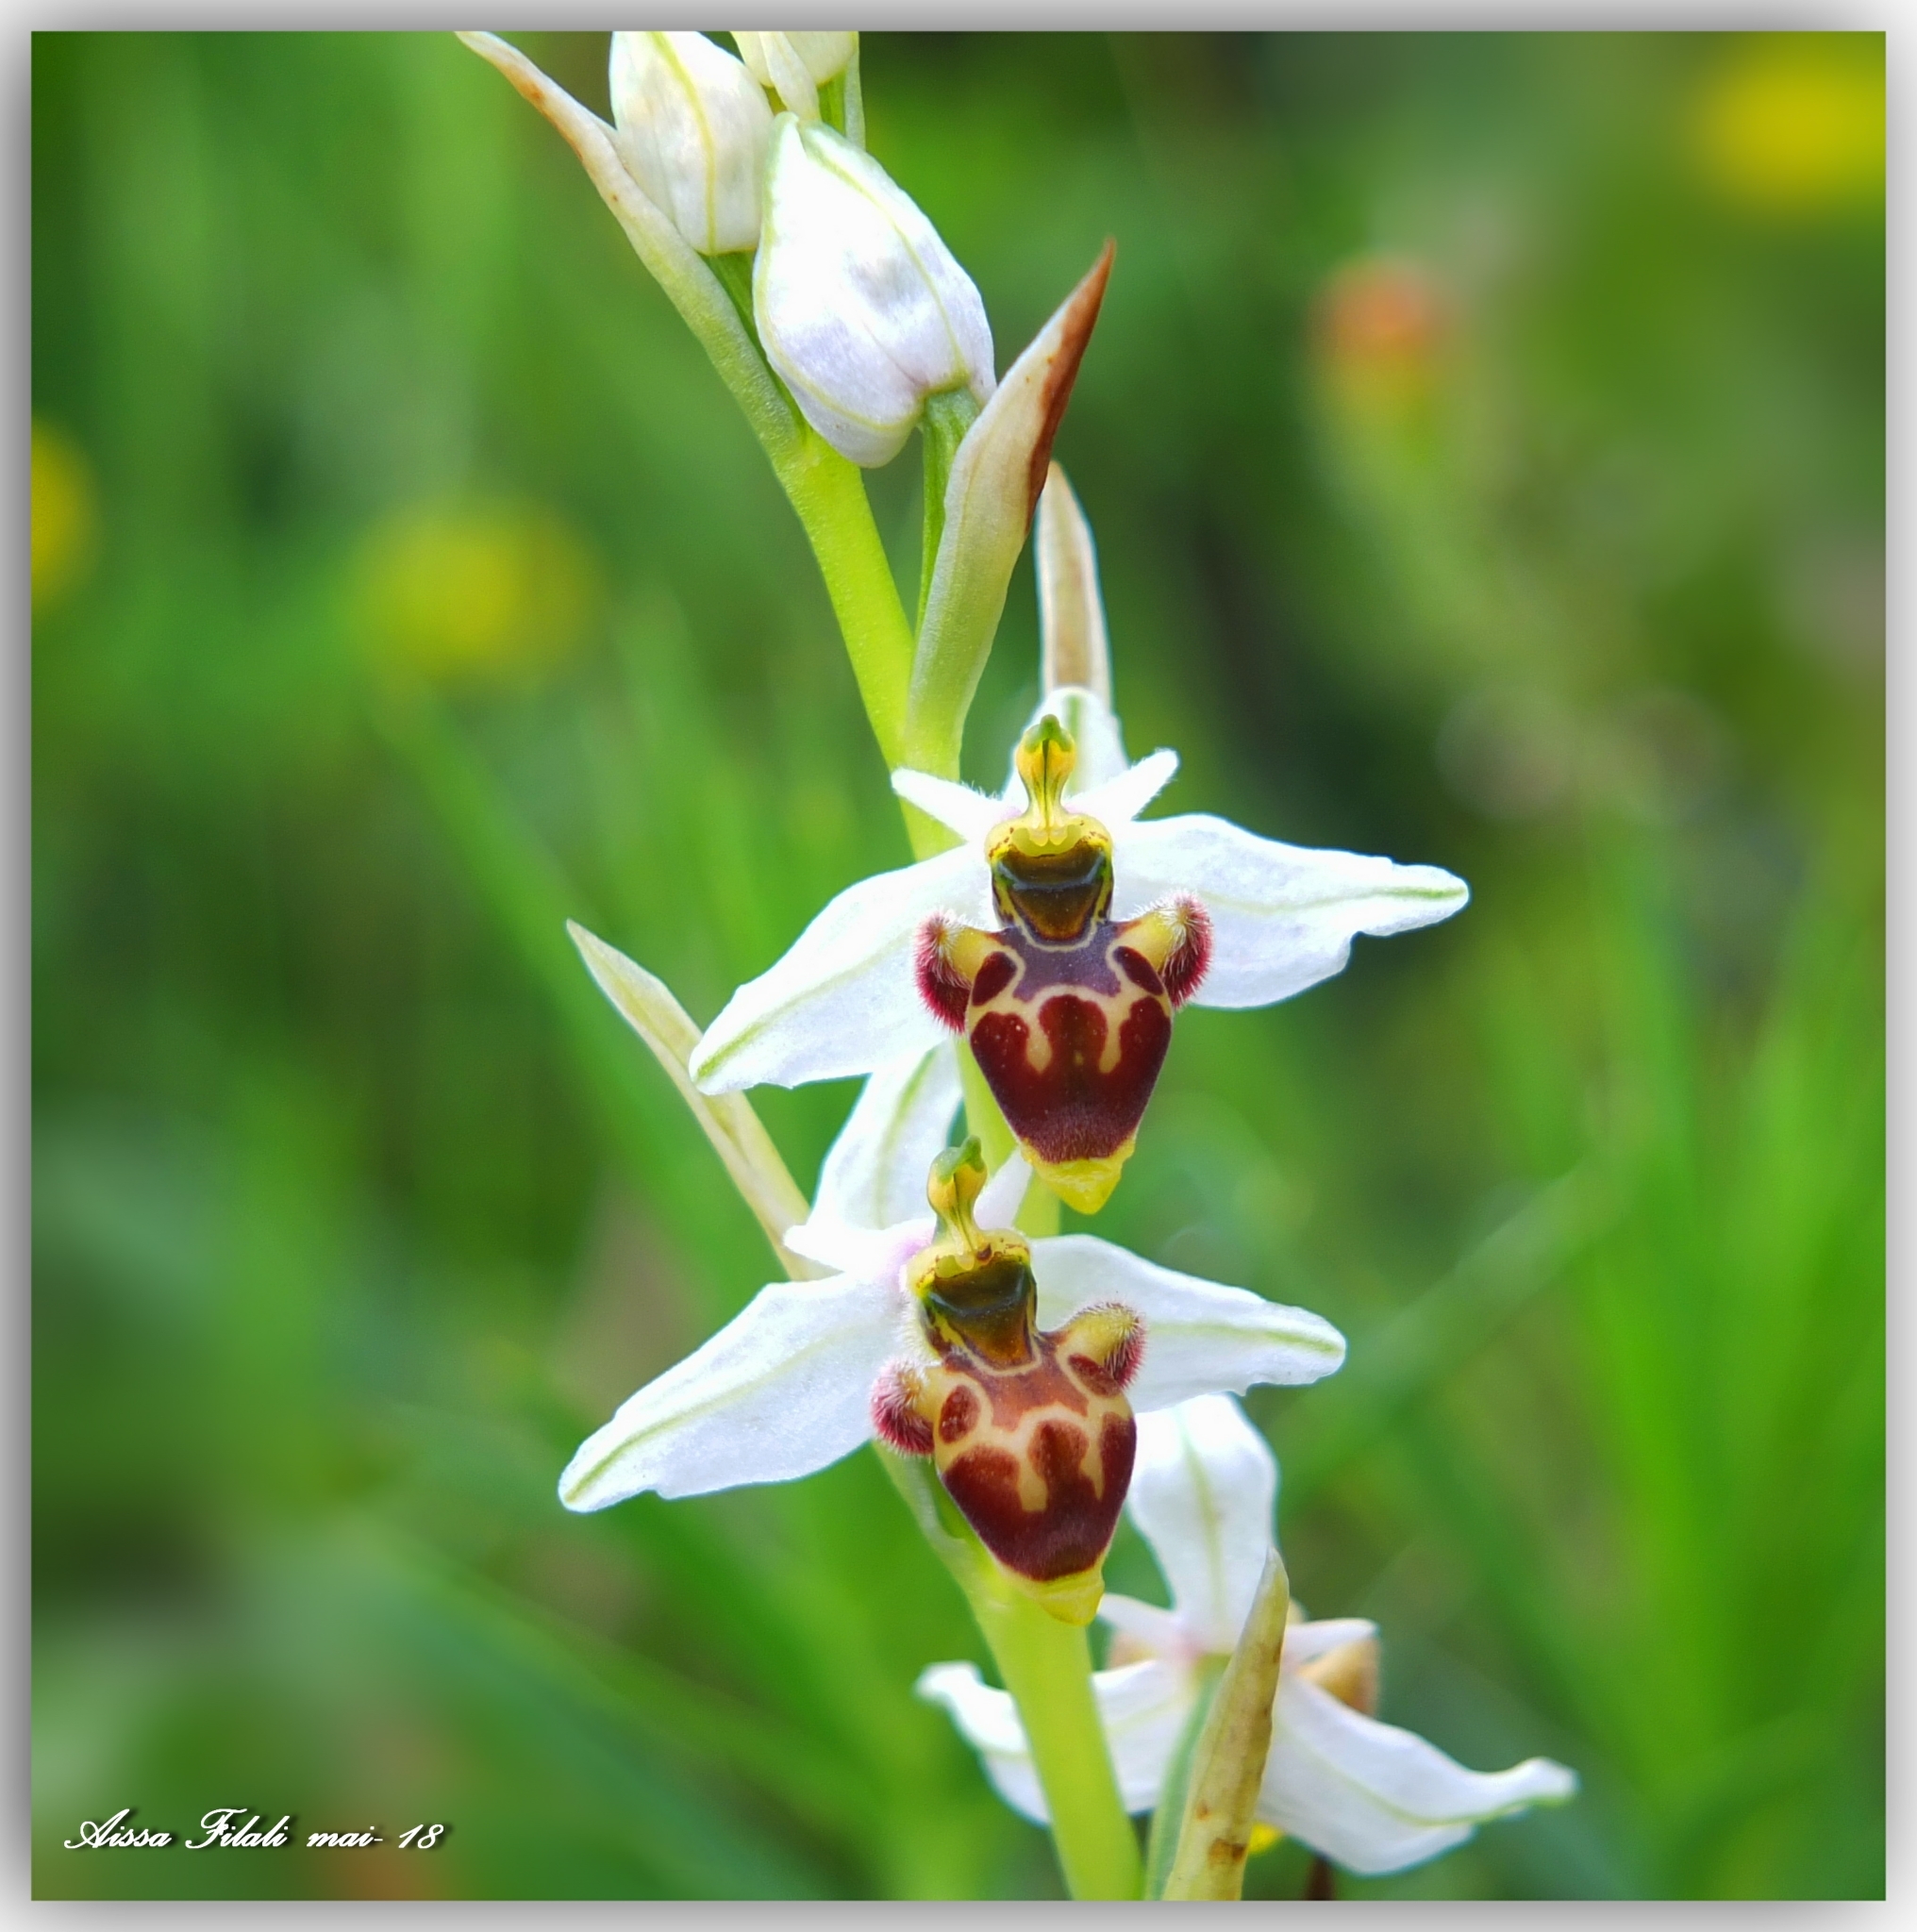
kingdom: Plantae
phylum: Tracheophyta
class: Liliopsida
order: Asparagales
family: Orchidaceae
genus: Ophrys
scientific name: Ophrys scolopax
